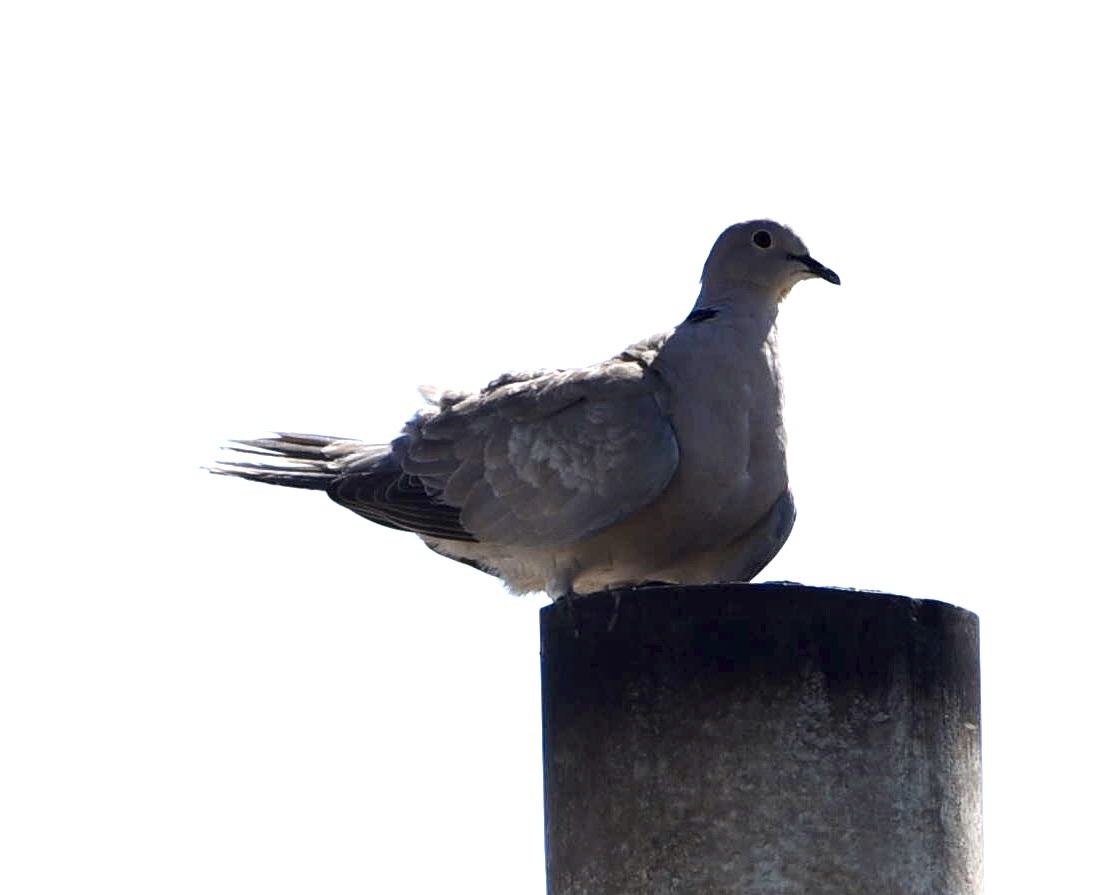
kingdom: Animalia
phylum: Chordata
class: Aves
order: Columbiformes
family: Columbidae
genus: Streptopelia
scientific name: Streptopelia decaocto
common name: Eurasian collared dove
